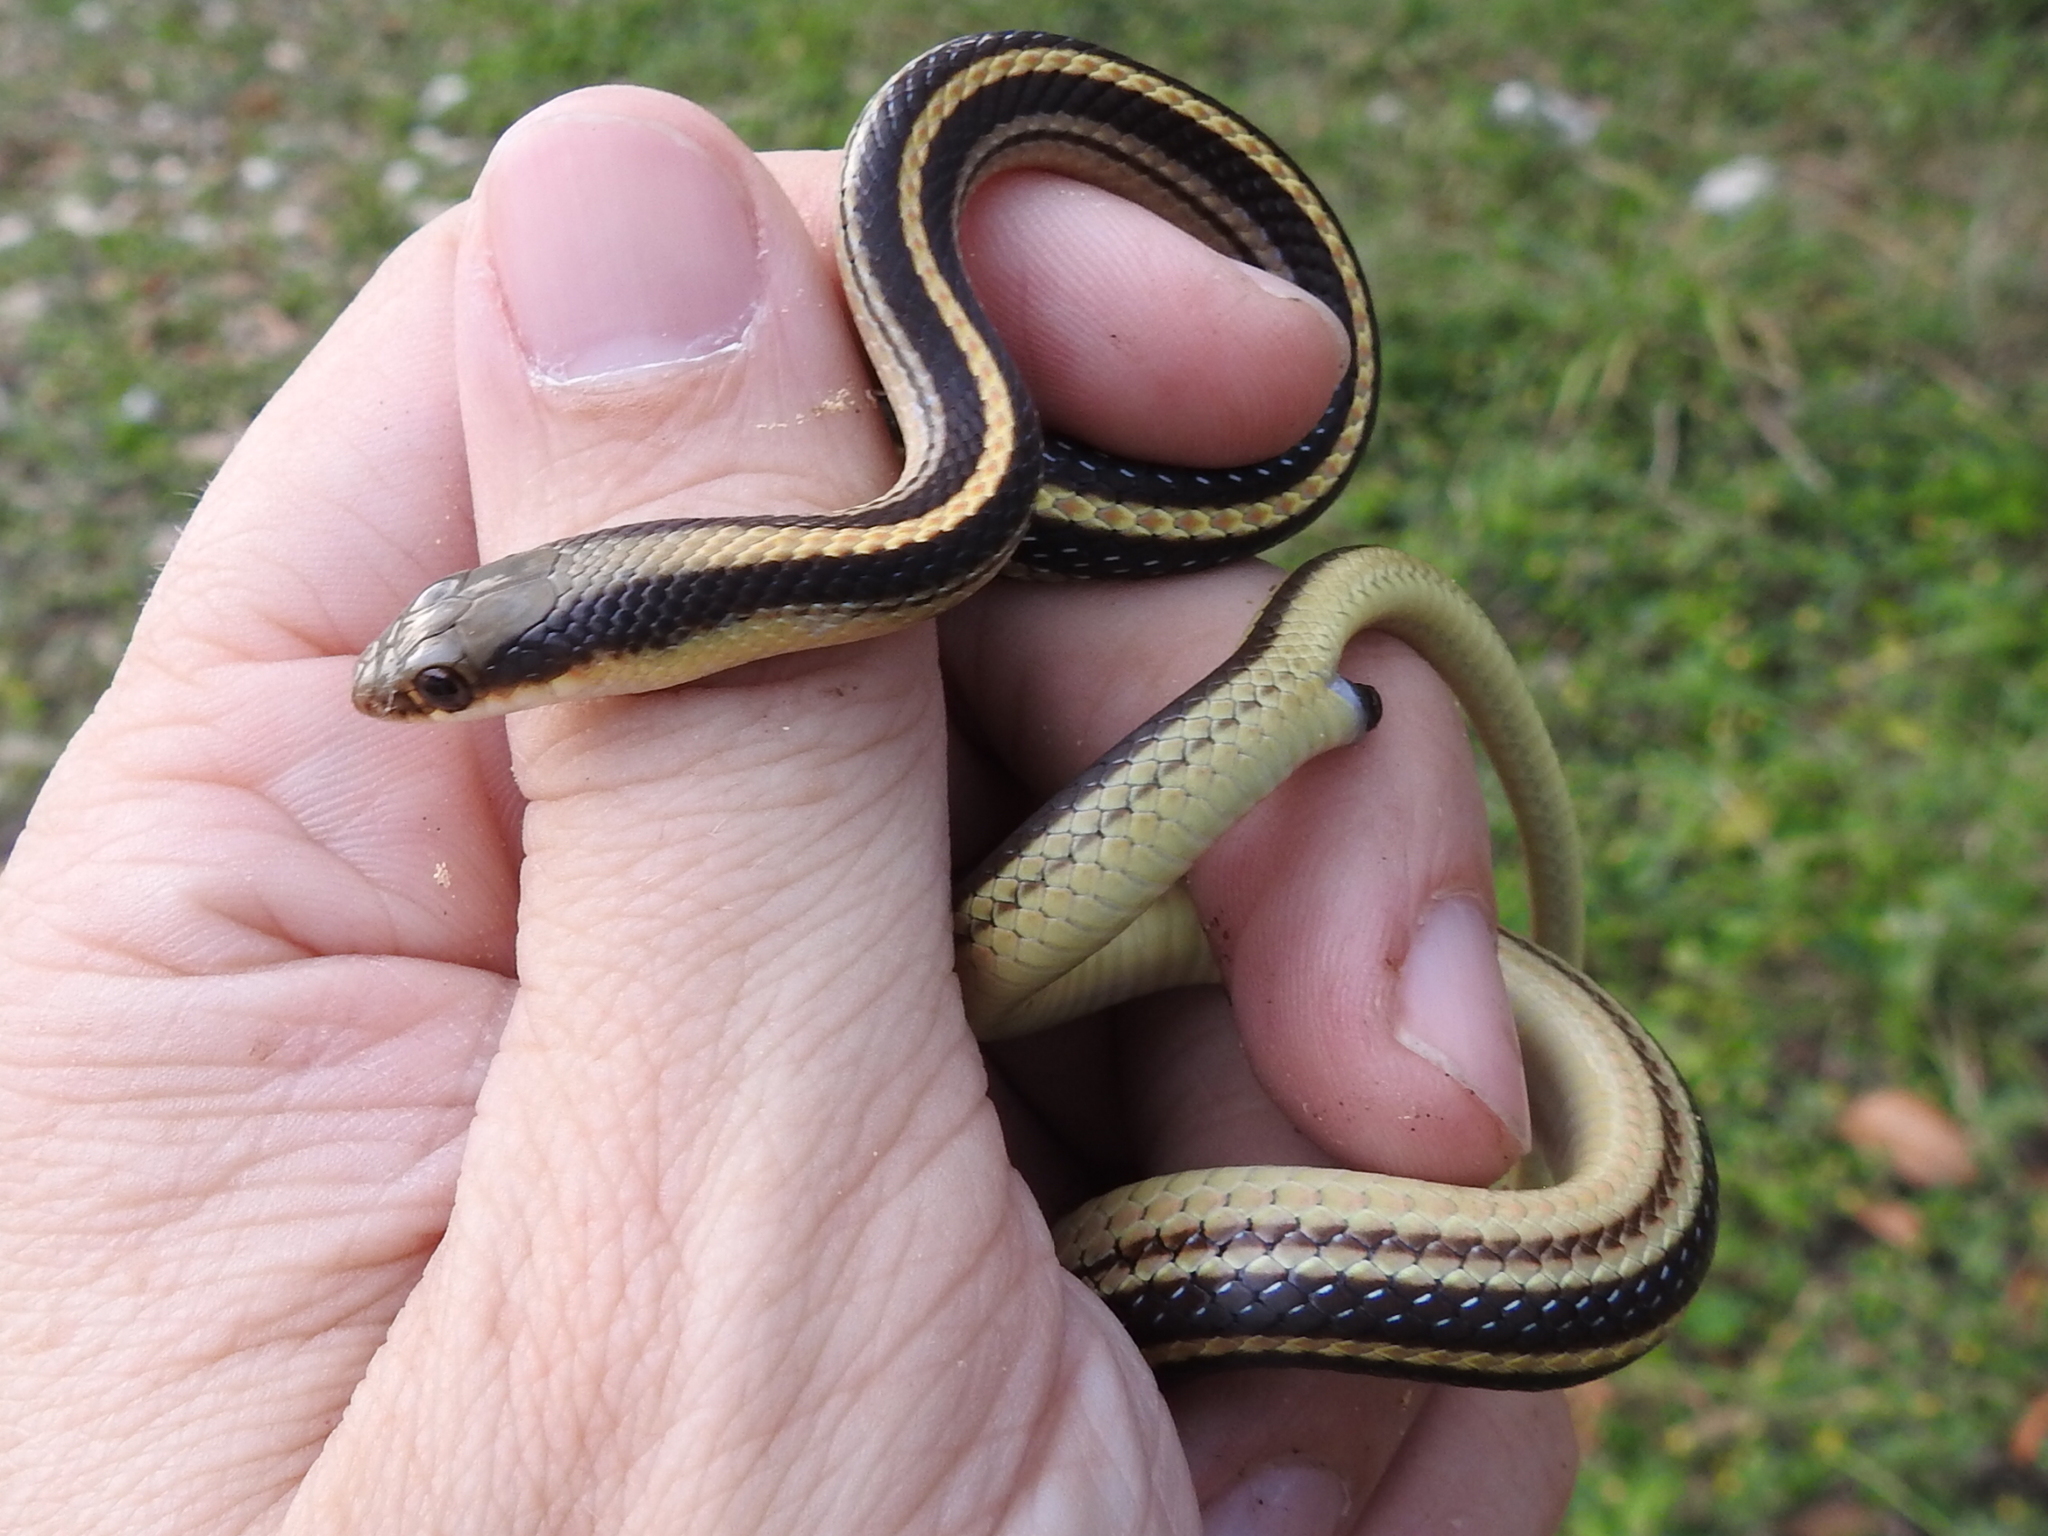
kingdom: Animalia
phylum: Chordata
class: Squamata
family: Colubridae
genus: Salvadora
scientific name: Salvadora lineata
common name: Texas patchnose snake
